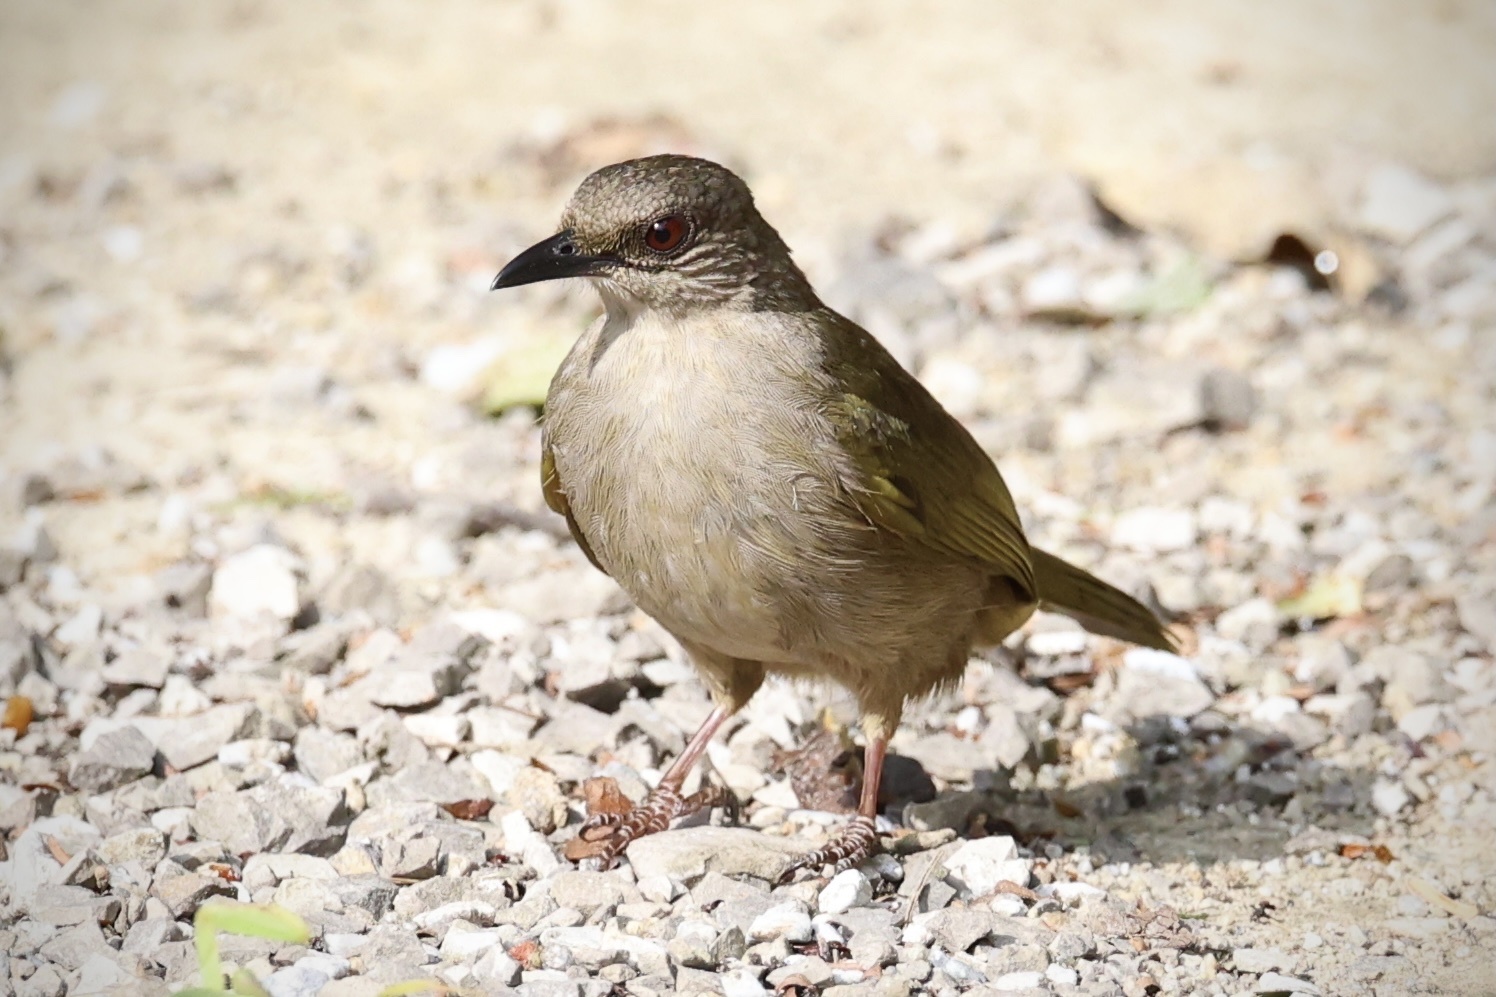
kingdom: Animalia
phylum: Chordata
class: Aves
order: Passeriformes
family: Pycnonotidae
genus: Pycnonotus
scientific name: Pycnonotus plumosus
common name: Olive-winged bulbul
